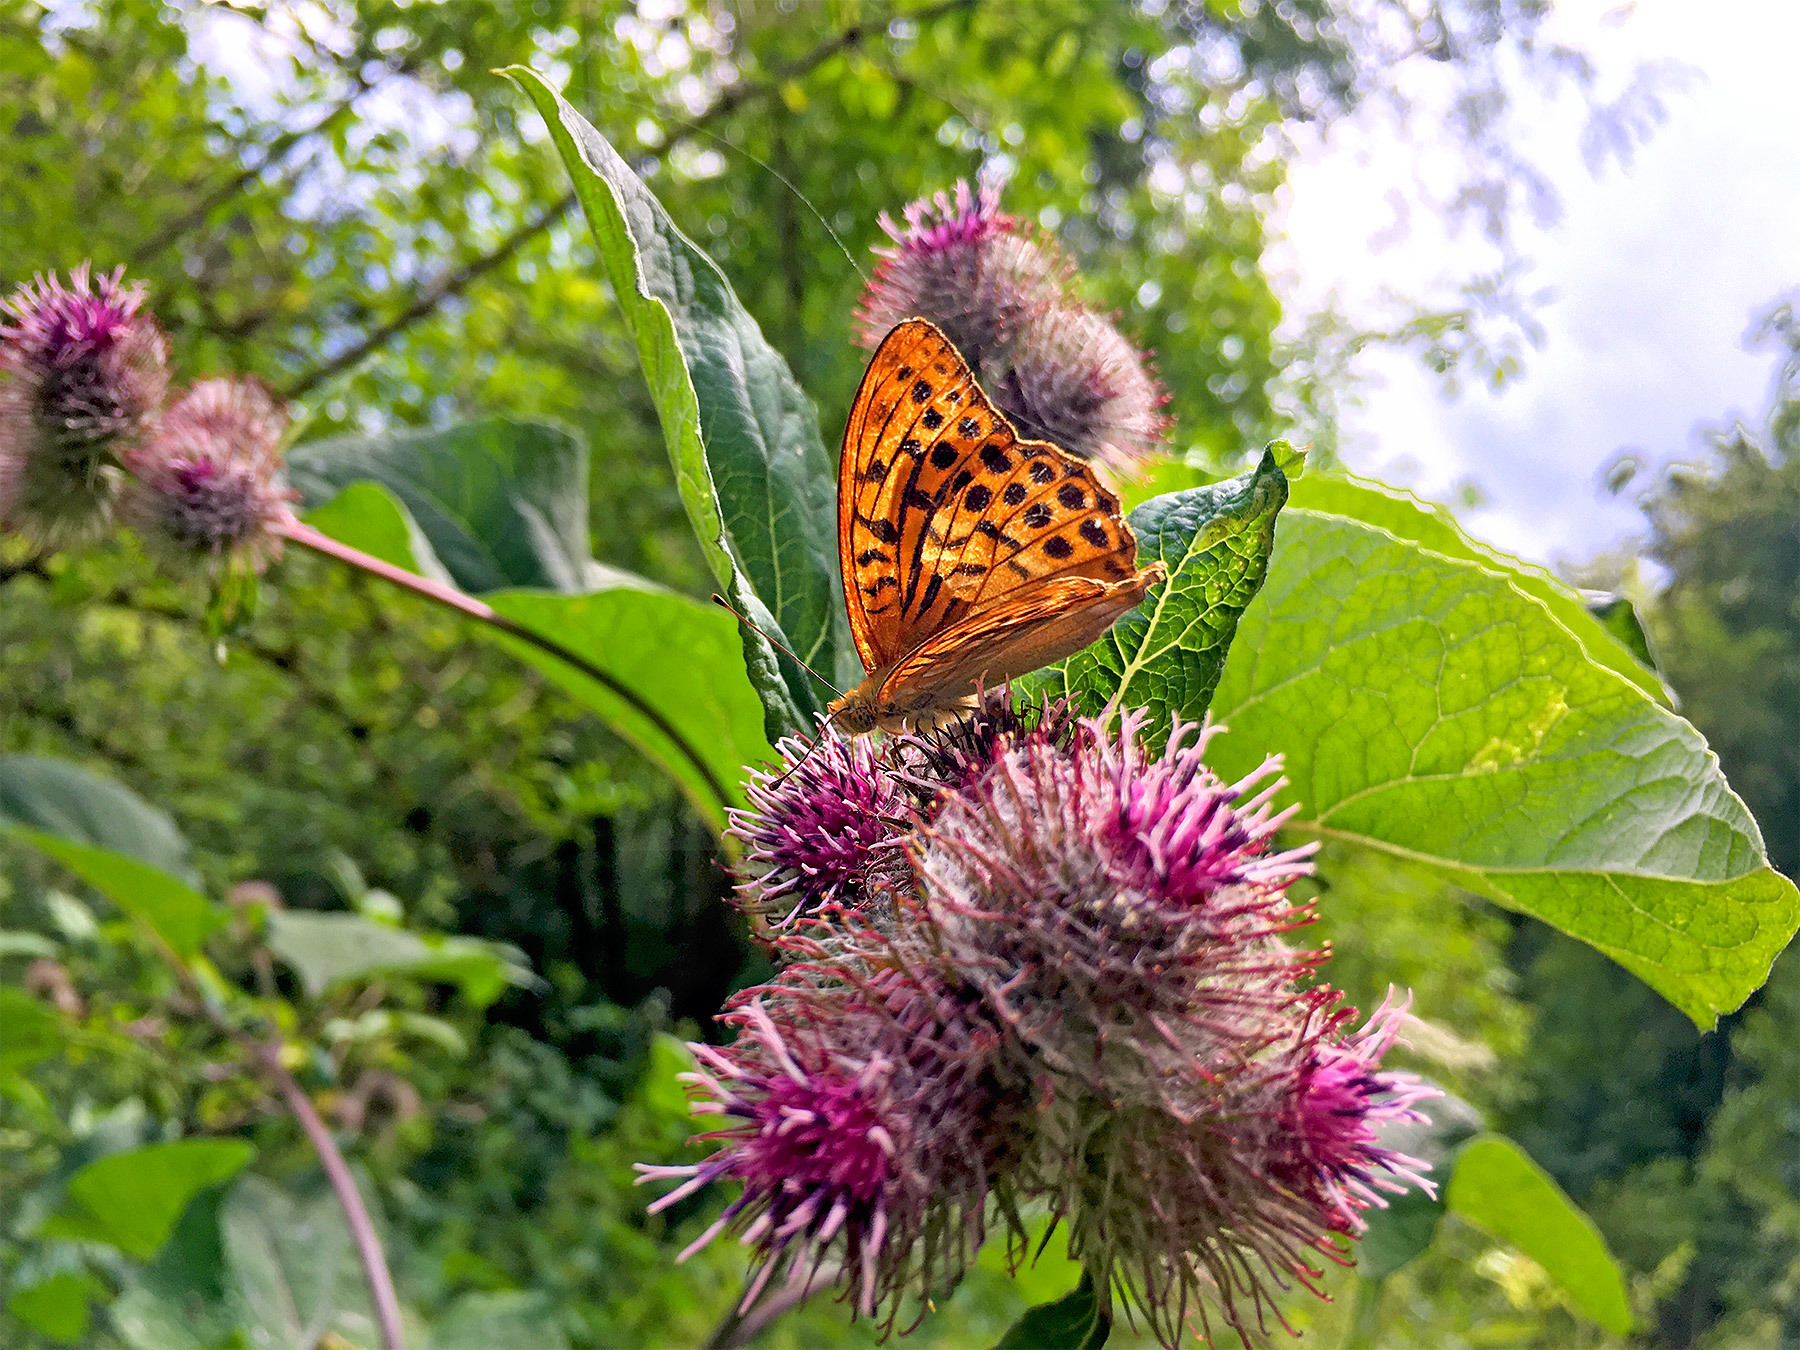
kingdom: Animalia
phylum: Arthropoda
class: Insecta
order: Lepidoptera
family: Nymphalidae
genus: Argynnis
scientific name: Argynnis paphia
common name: Silver-washed fritillary
